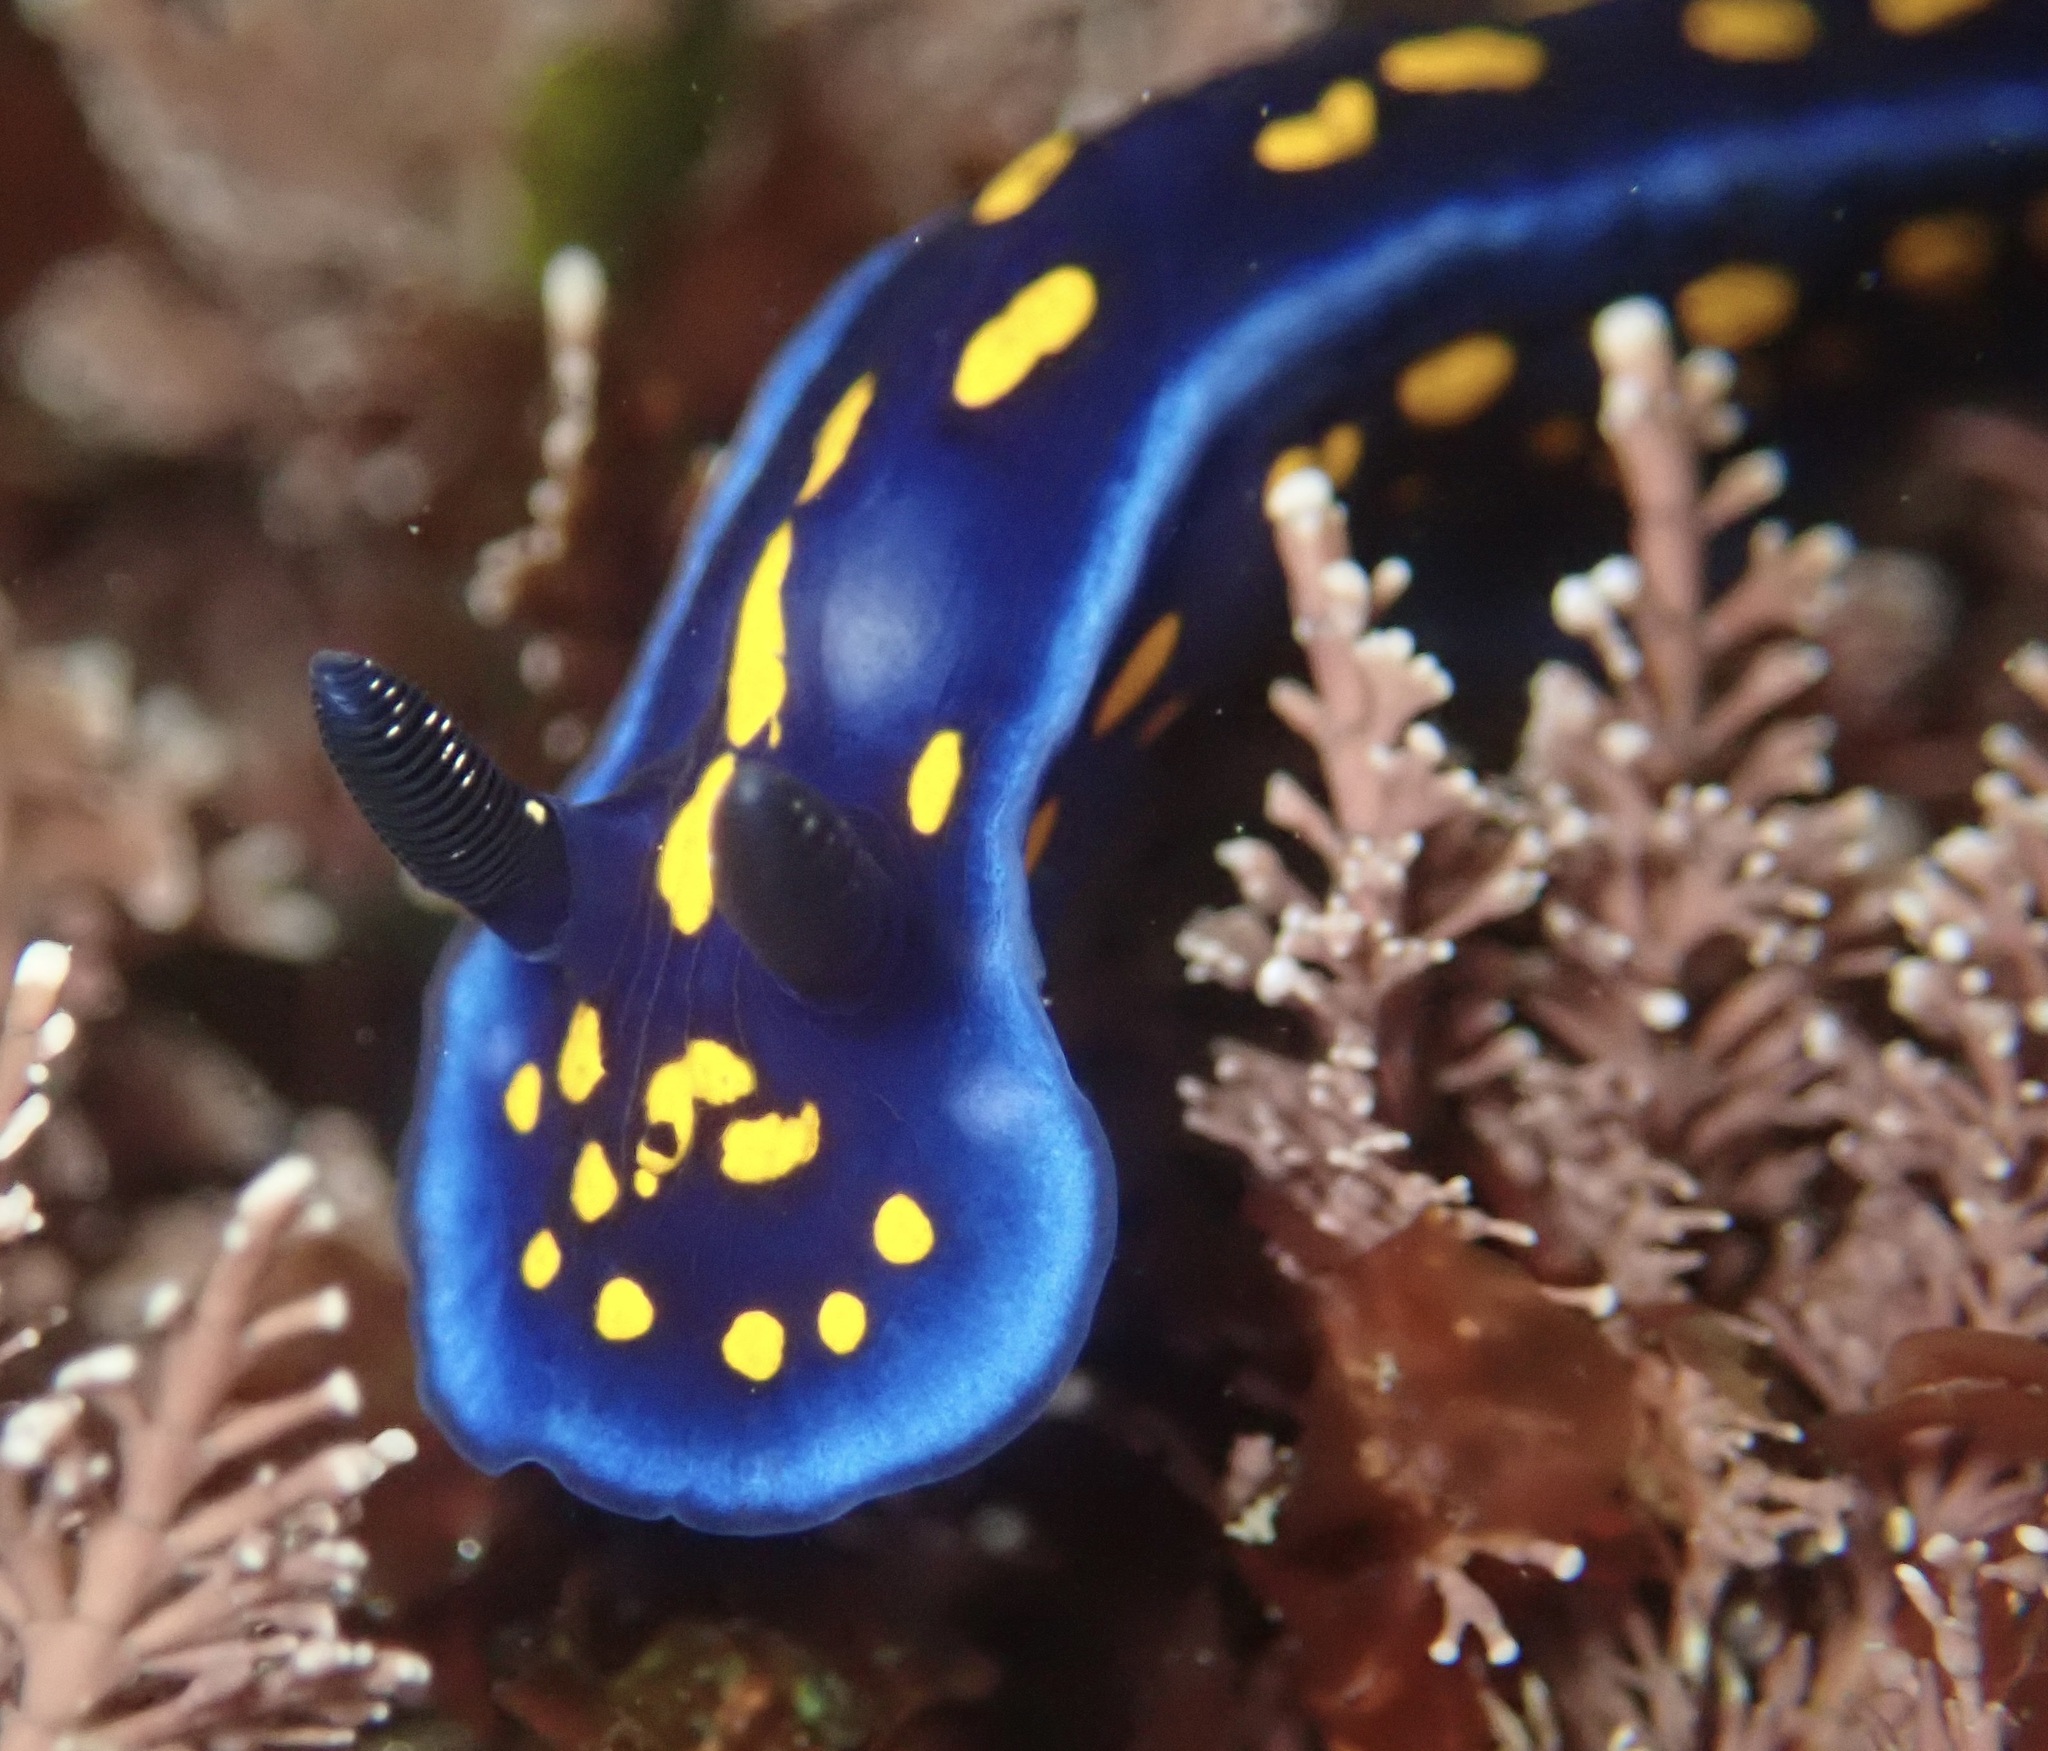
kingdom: Animalia
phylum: Mollusca
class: Gastropoda
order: Nudibranchia
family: Chromodorididae
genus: Felimare
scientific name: Felimare californiensis
